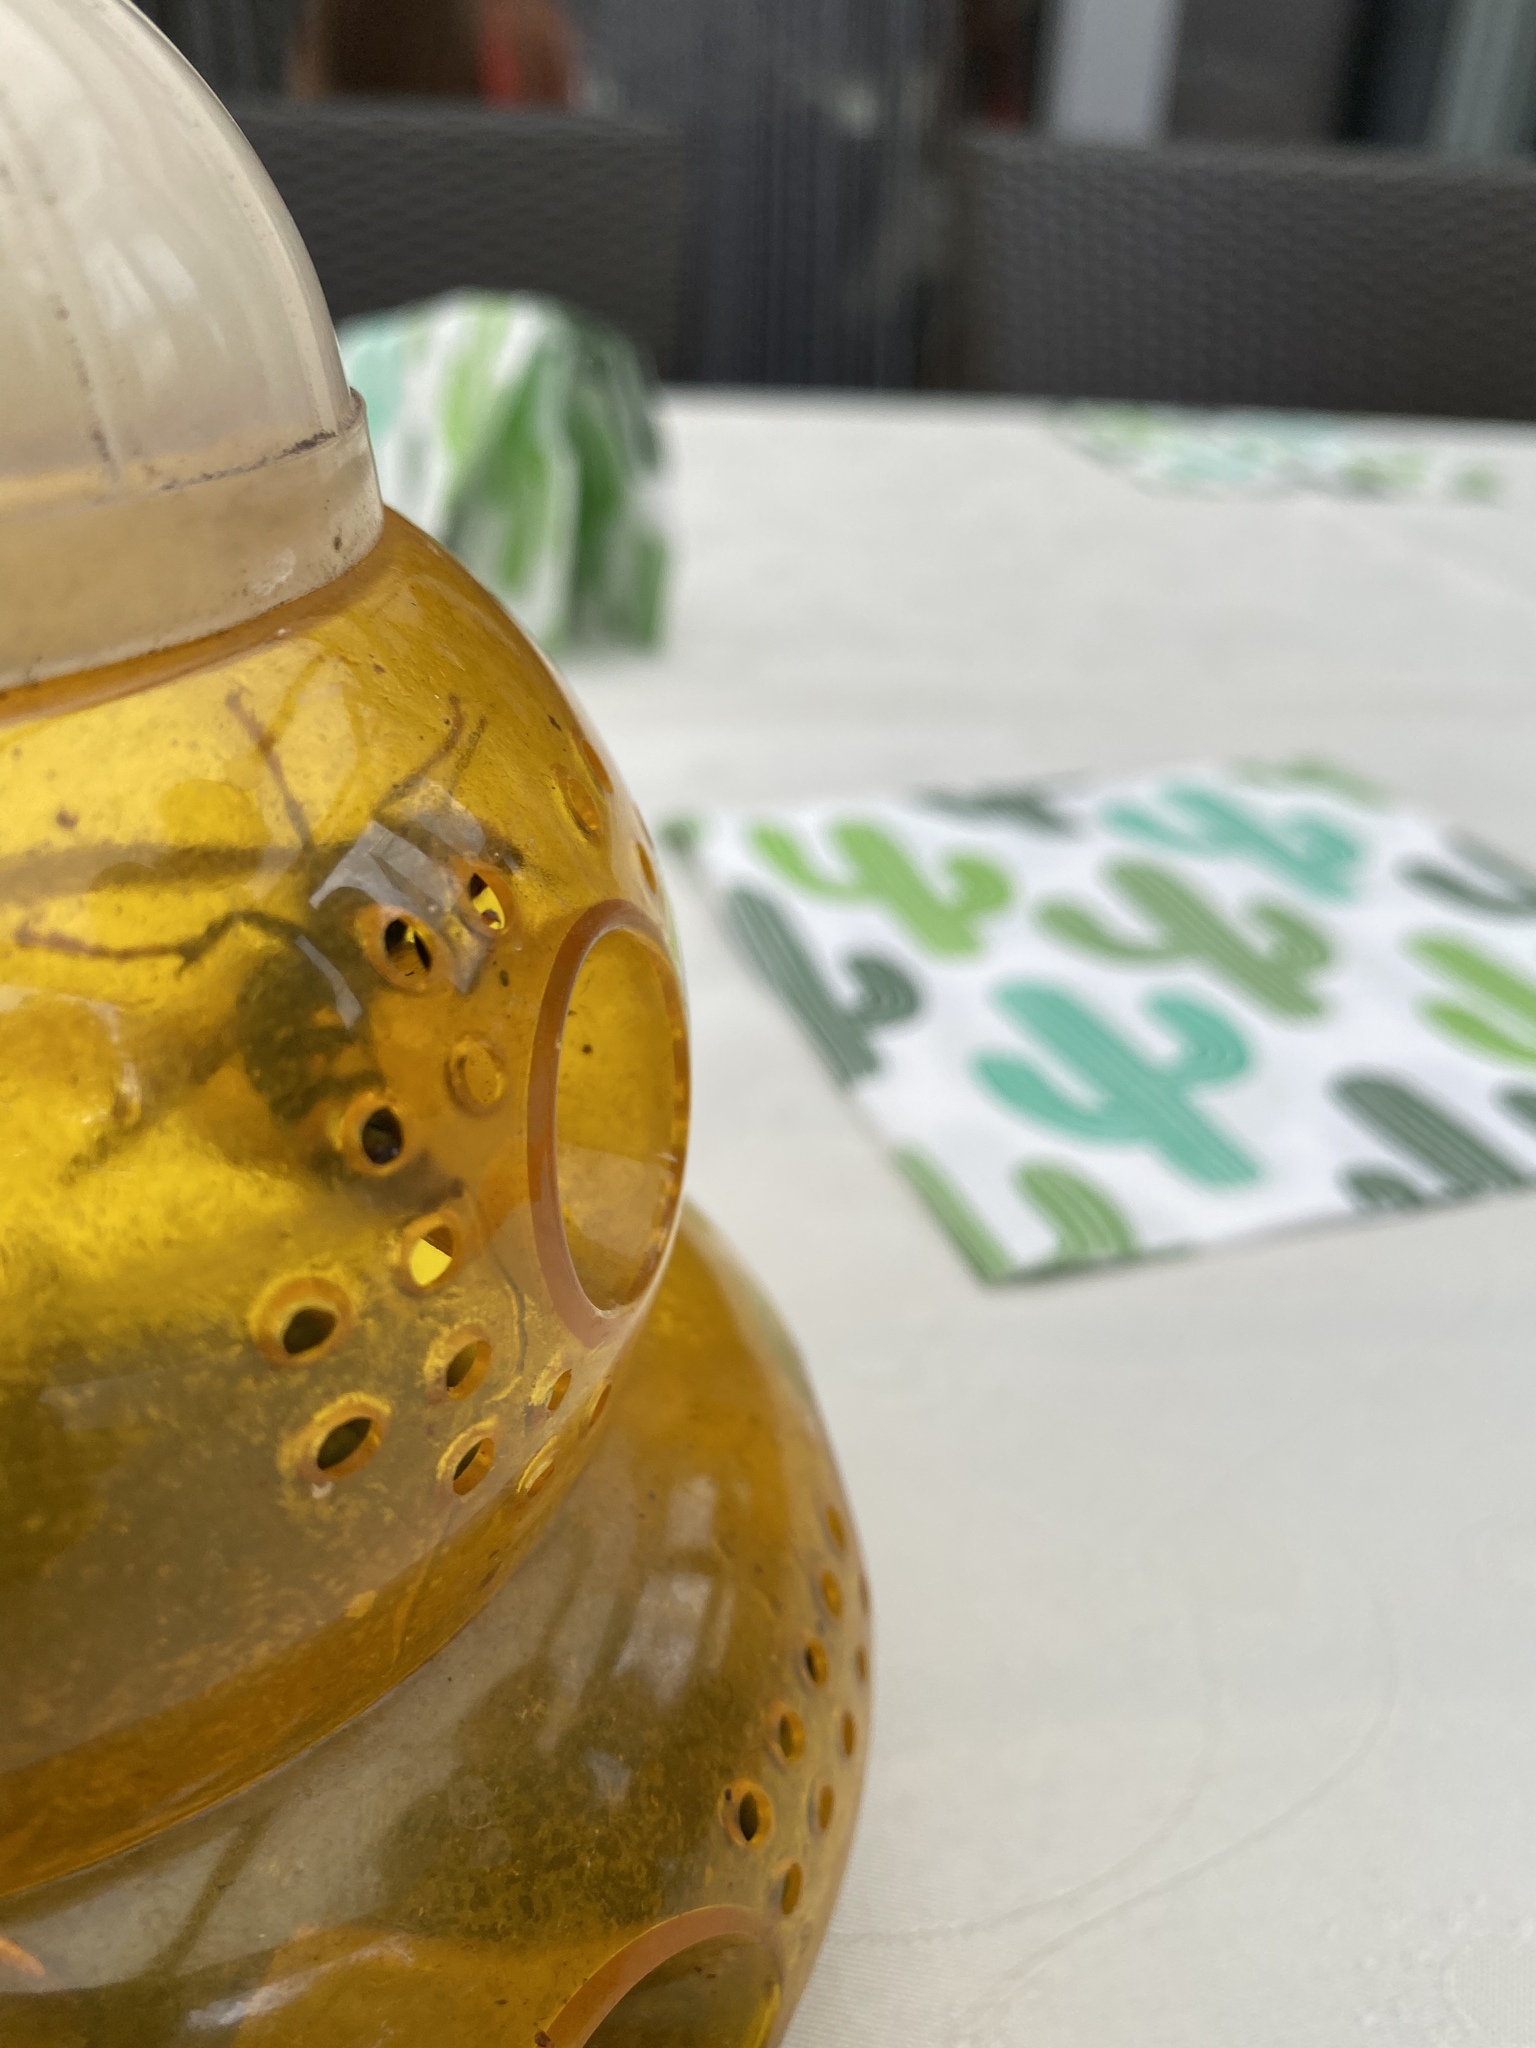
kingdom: Animalia
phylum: Arthropoda
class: Insecta
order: Hymenoptera
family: Vespidae
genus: Vespa
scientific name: Vespa velutina
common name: Asian hornet
